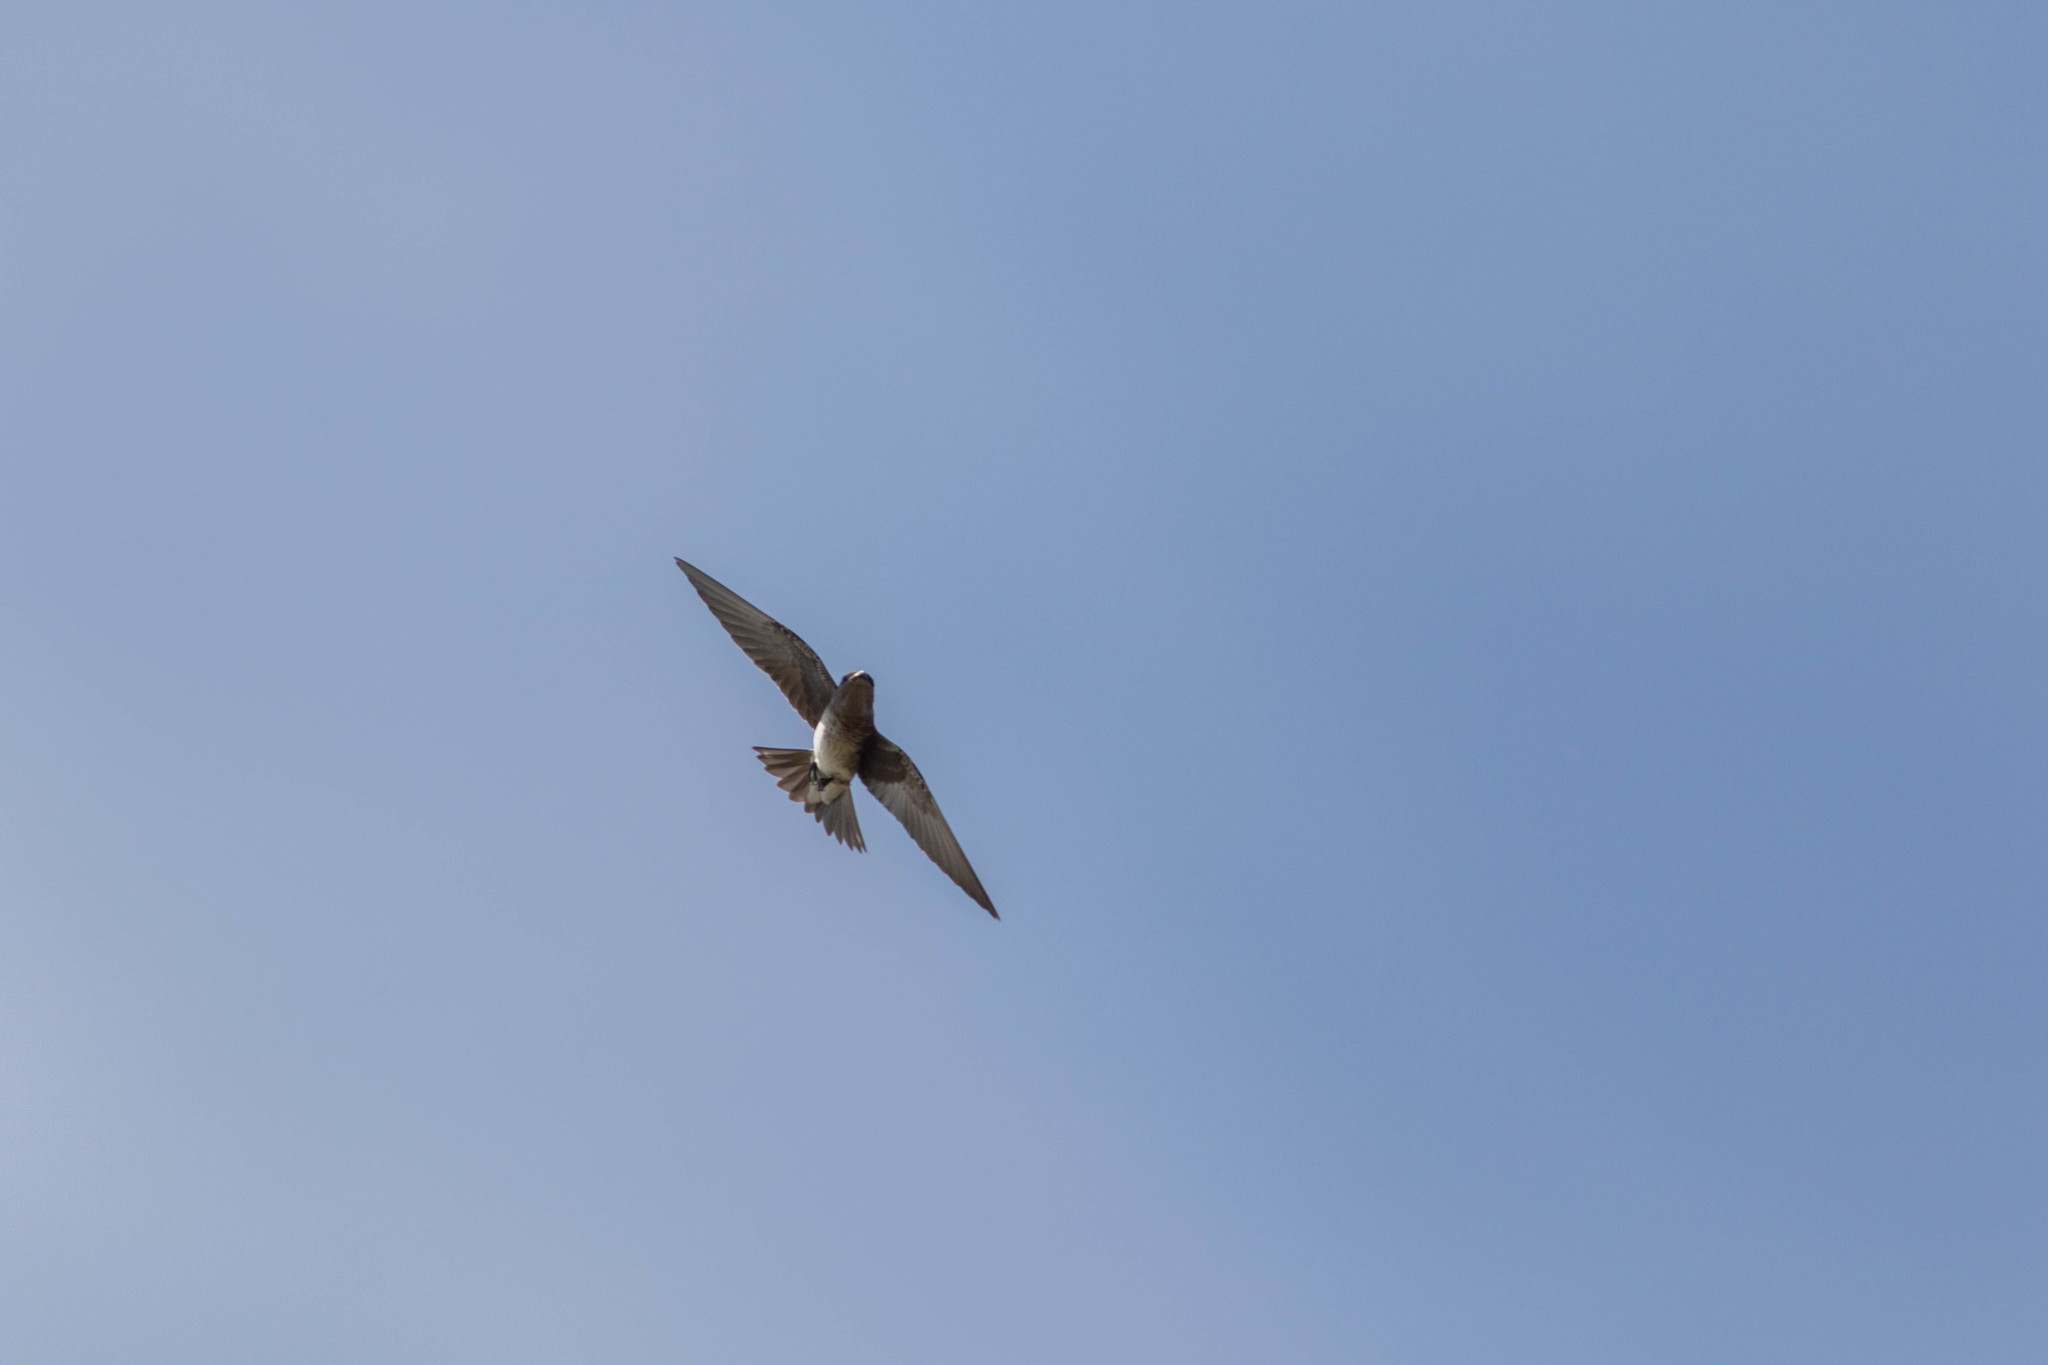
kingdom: Animalia
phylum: Chordata
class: Aves
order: Passeriformes
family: Hirundinidae
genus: Progne
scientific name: Progne subis
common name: Purple martin
